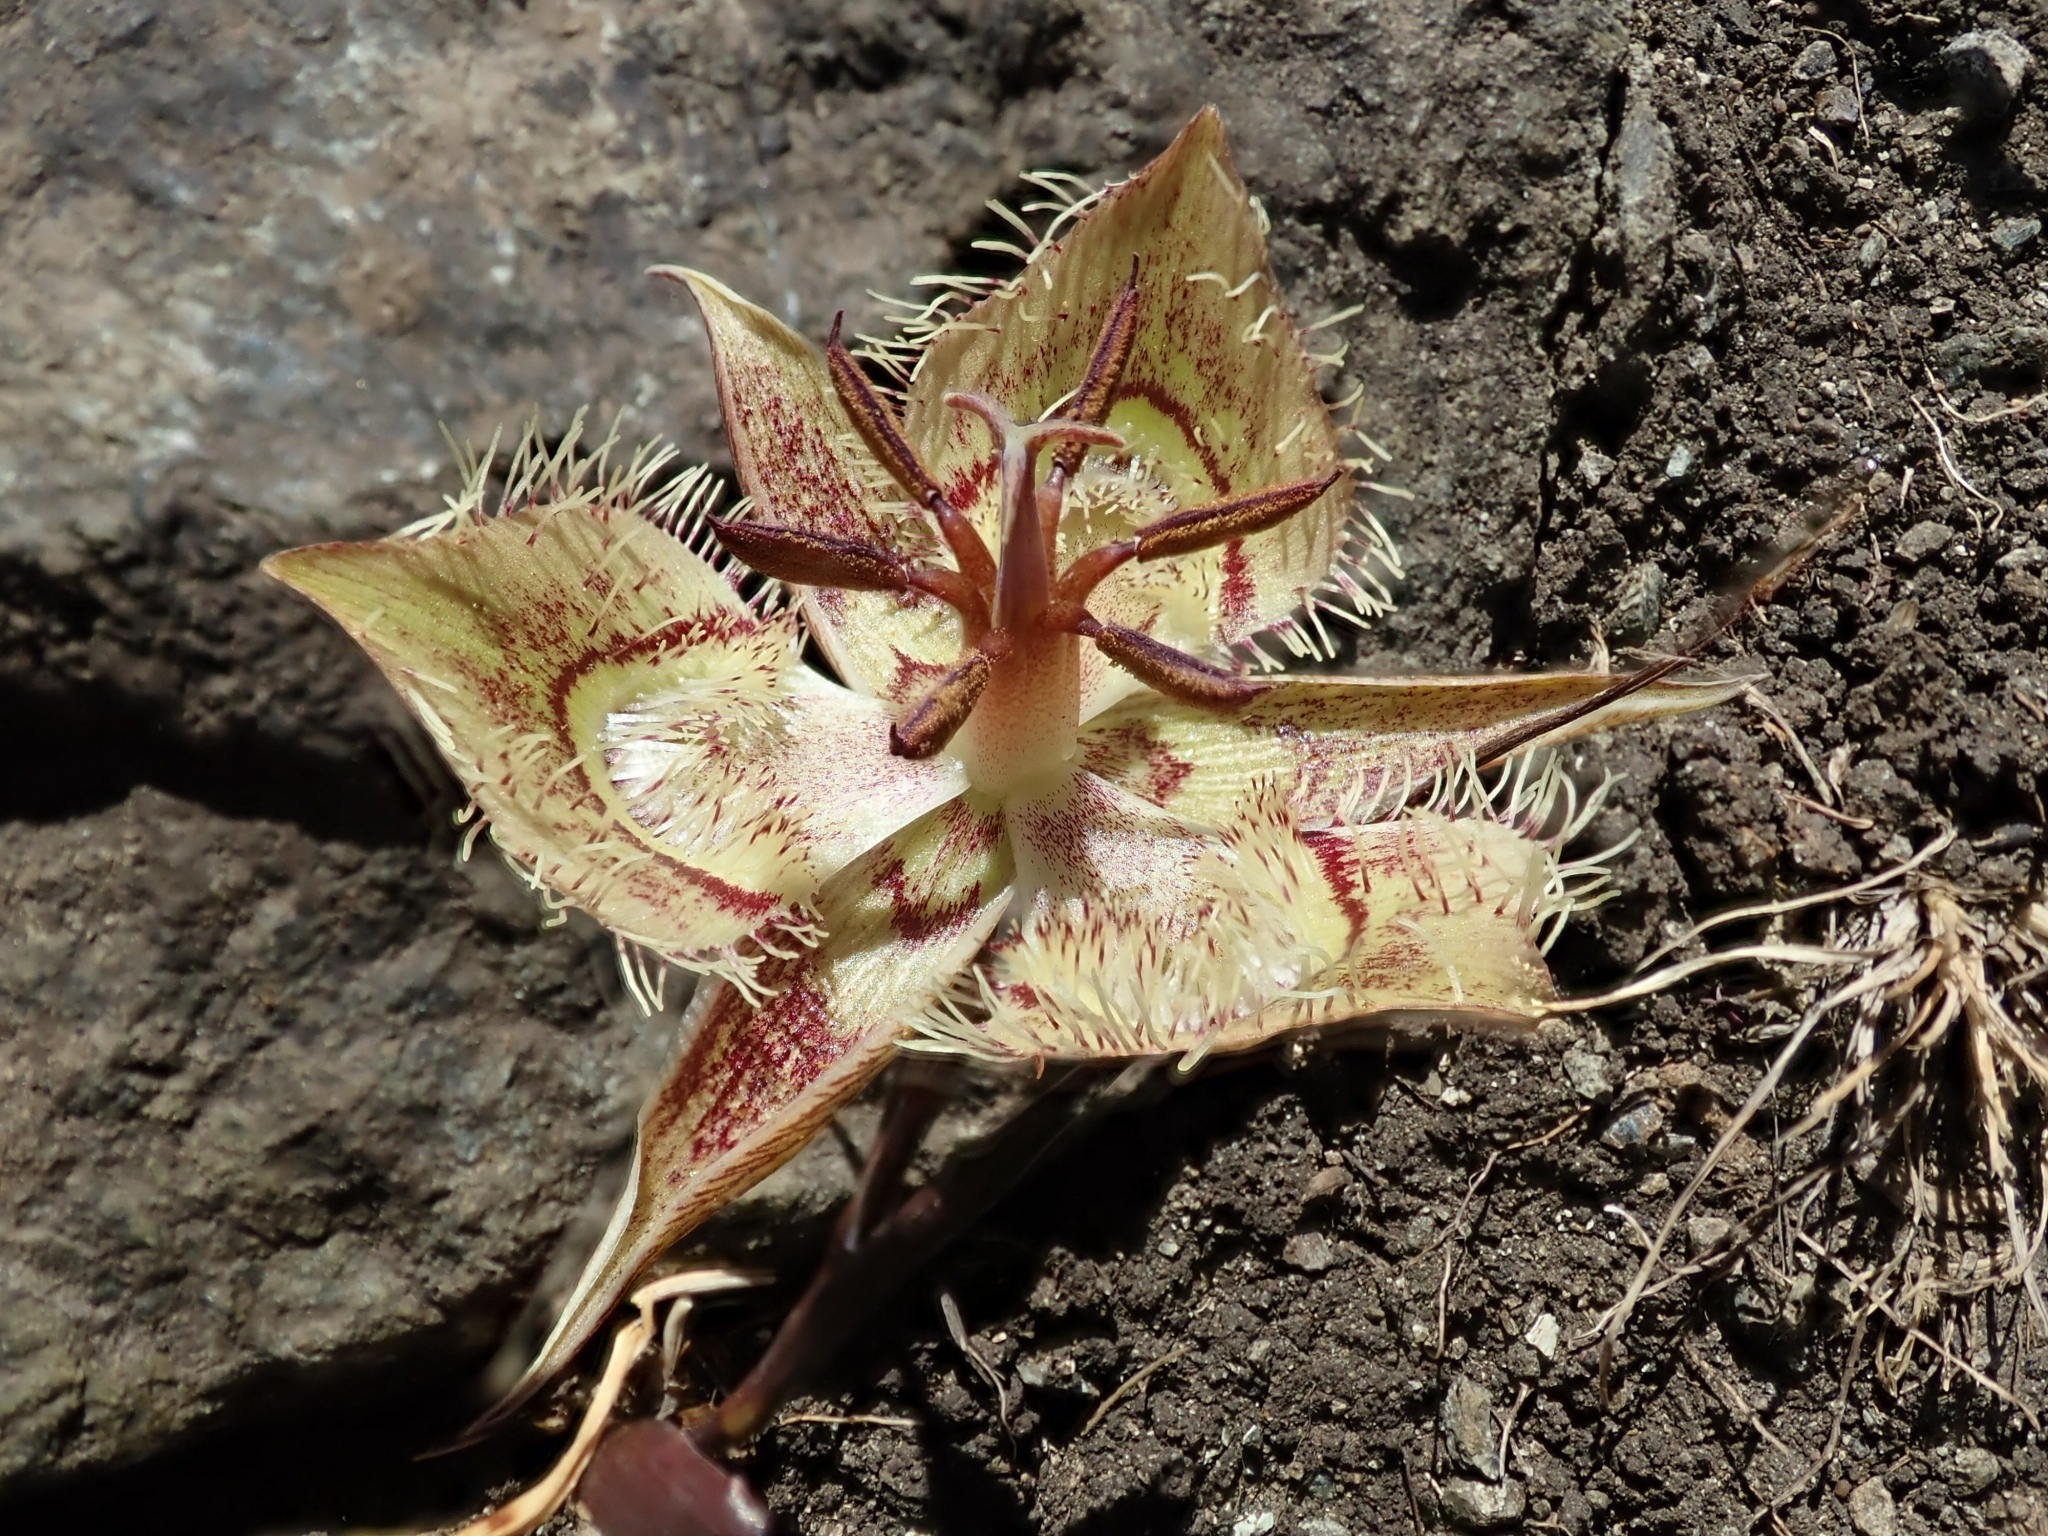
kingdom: Plantae
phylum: Tracheophyta
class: Liliopsida
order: Liliales
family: Liliaceae
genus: Calochortus
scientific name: Calochortus tiburonensis
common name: Tiburon mariposa-lily
